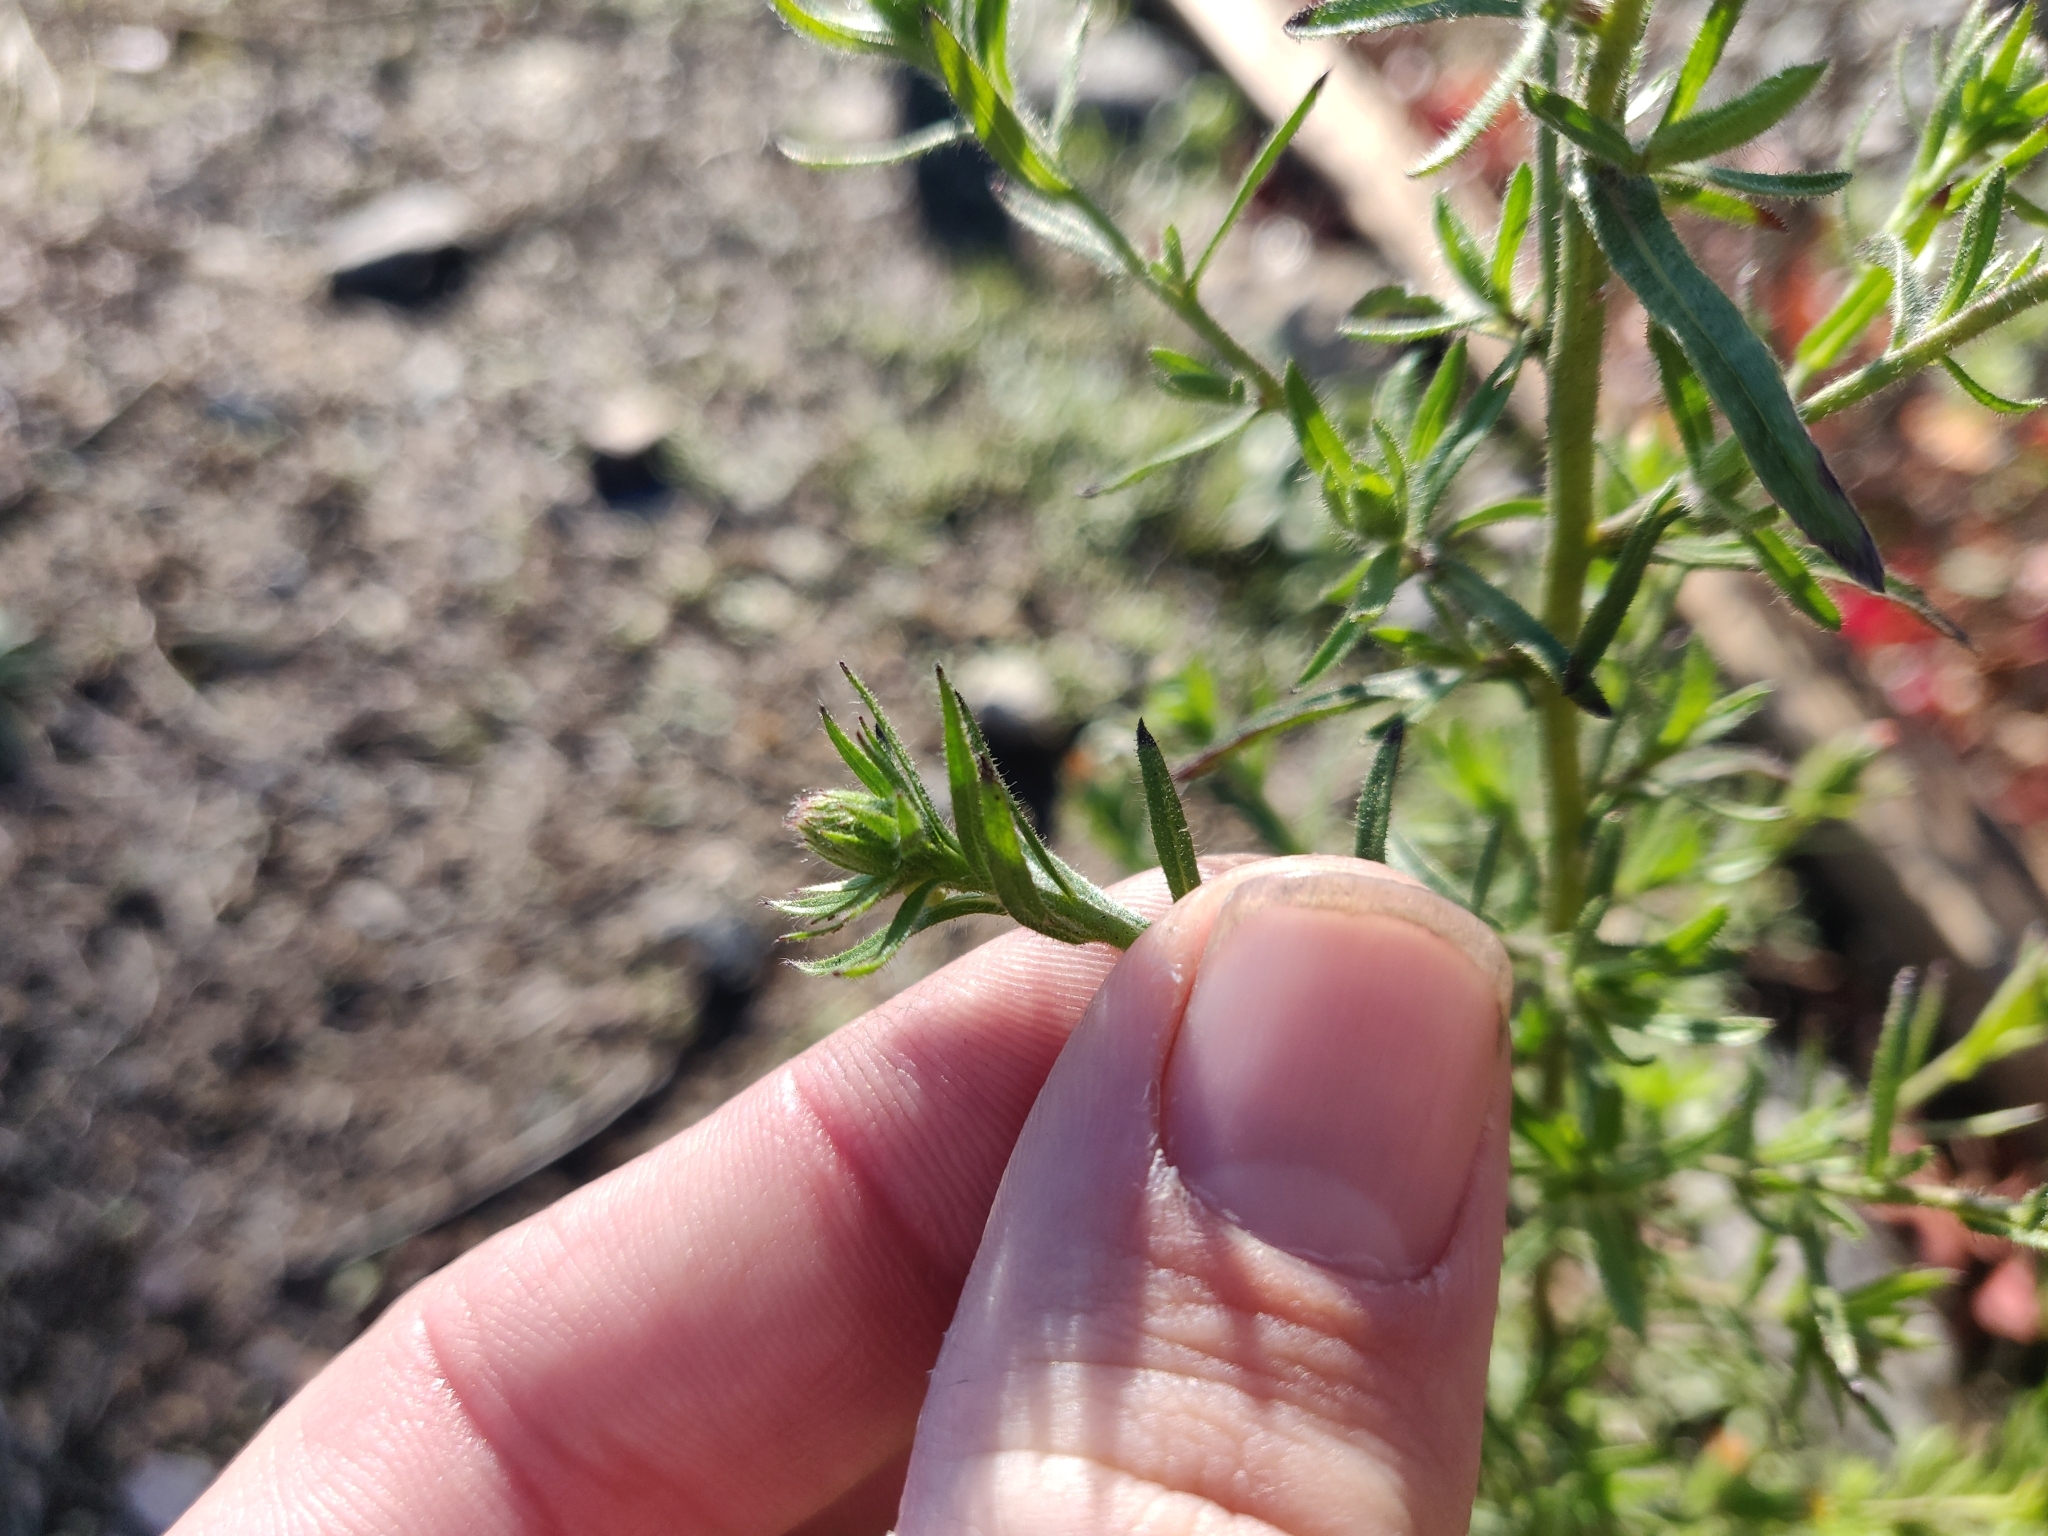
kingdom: Plantae
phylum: Tracheophyta
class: Magnoliopsida
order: Asterales
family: Asteraceae
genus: Dittrichia
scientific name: Dittrichia graveolens
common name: Stinking fleabane
